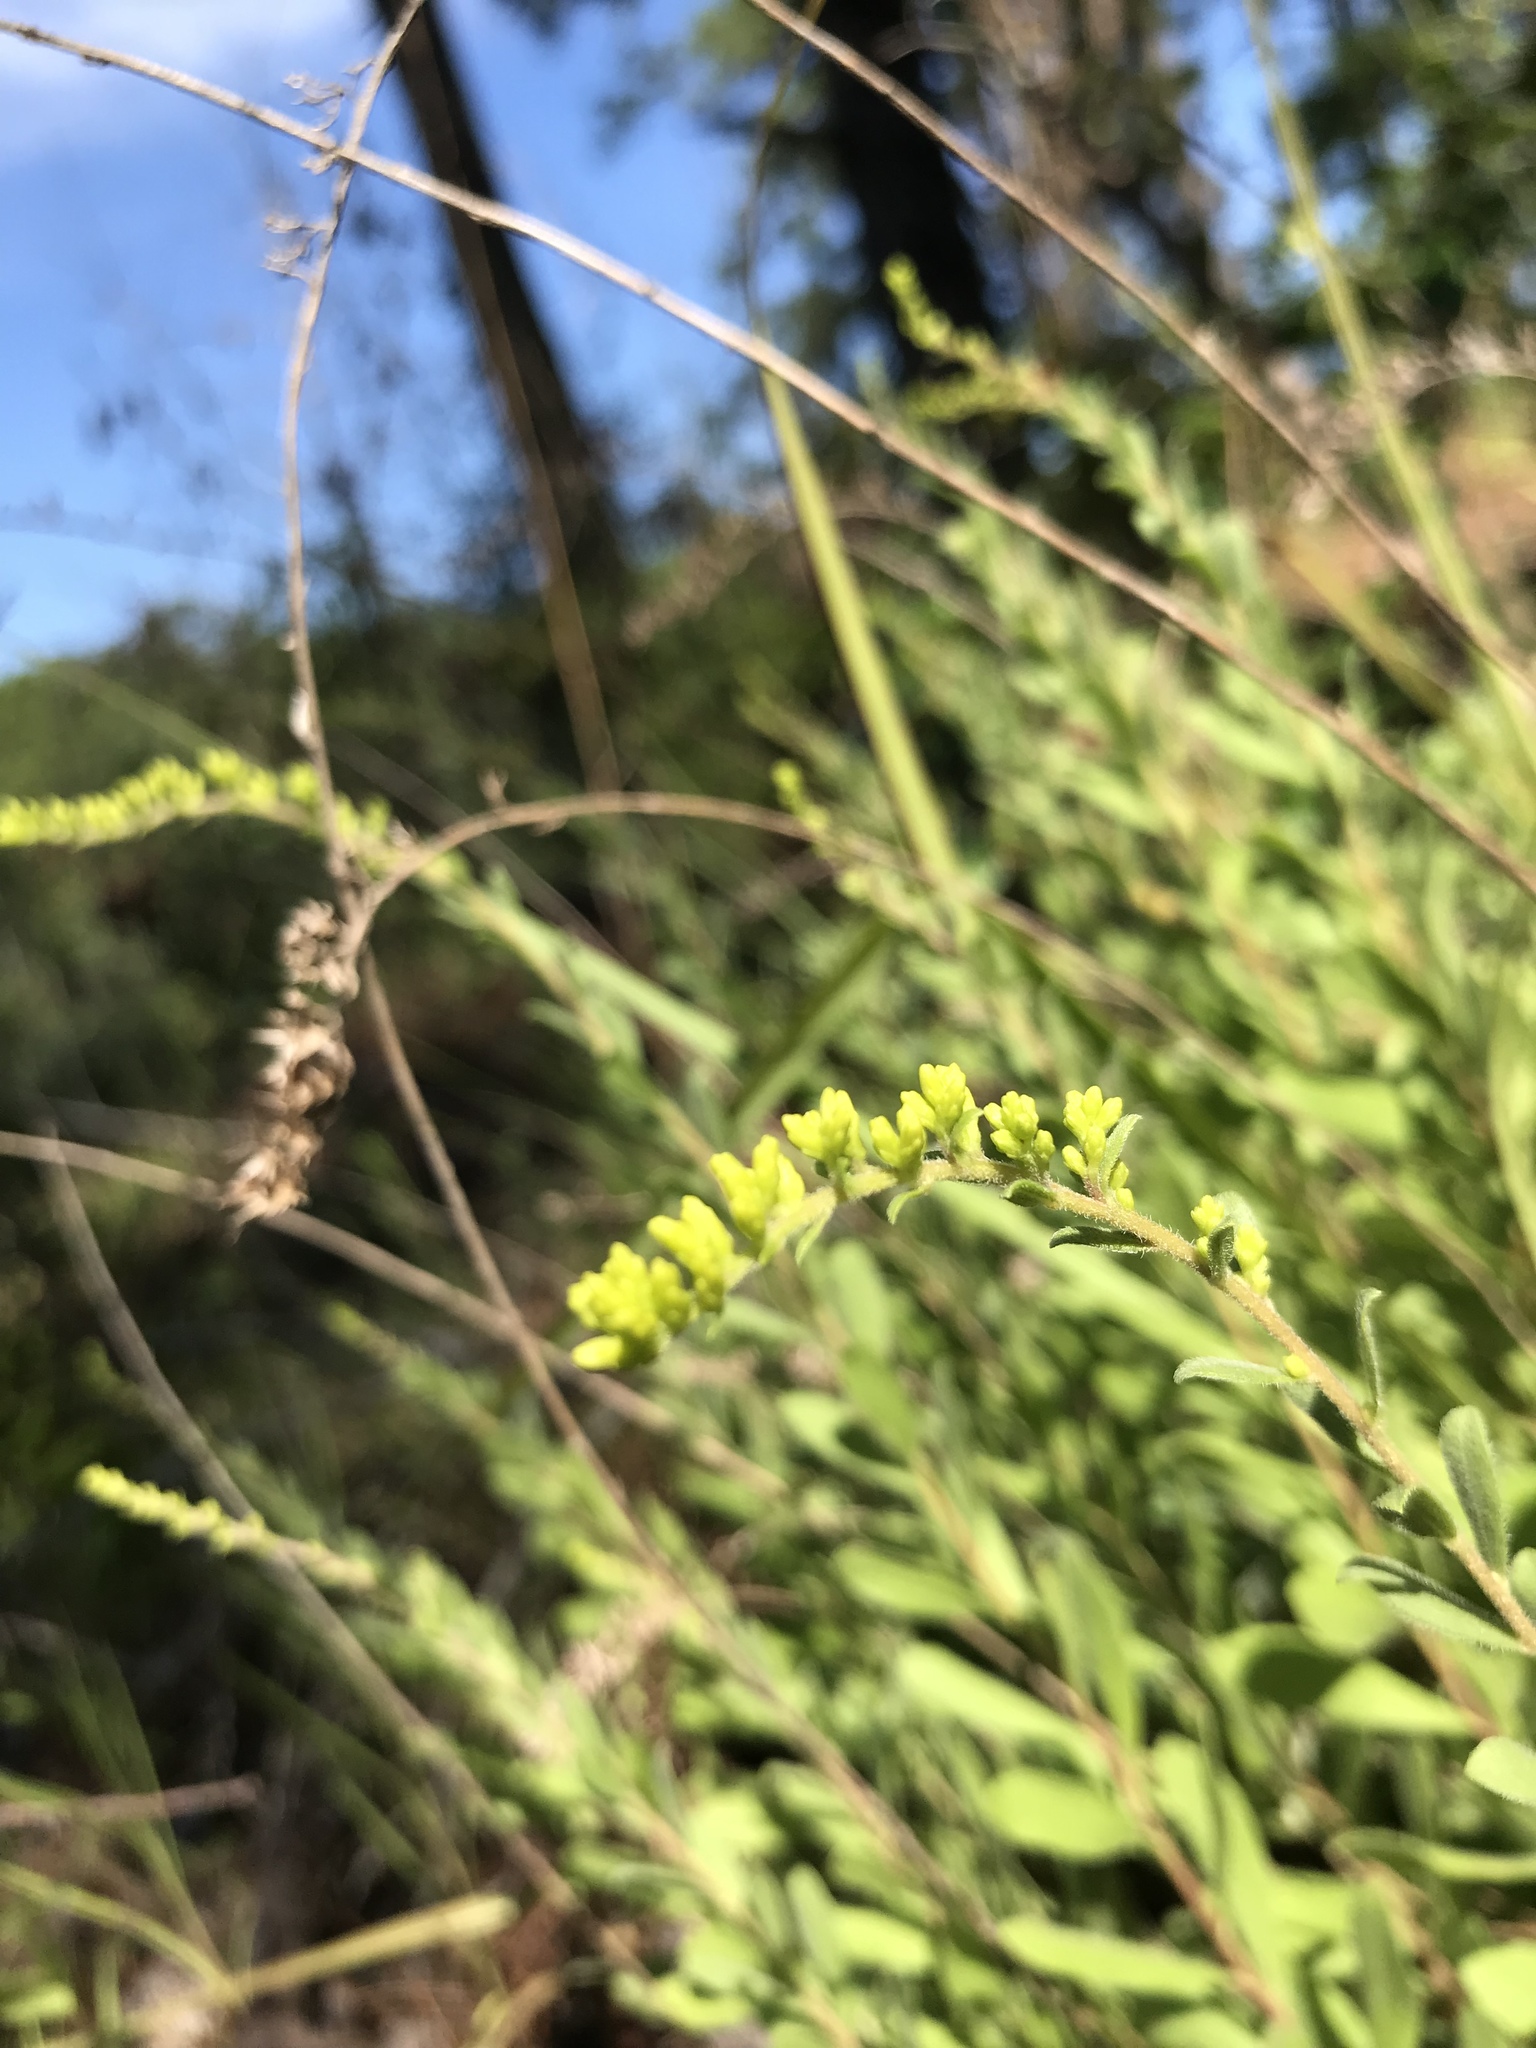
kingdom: Plantae
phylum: Tracheophyta
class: Magnoliopsida
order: Asterales
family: Asteraceae
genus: Solidago
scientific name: Solidago nemoralis
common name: Grey goldenrod
